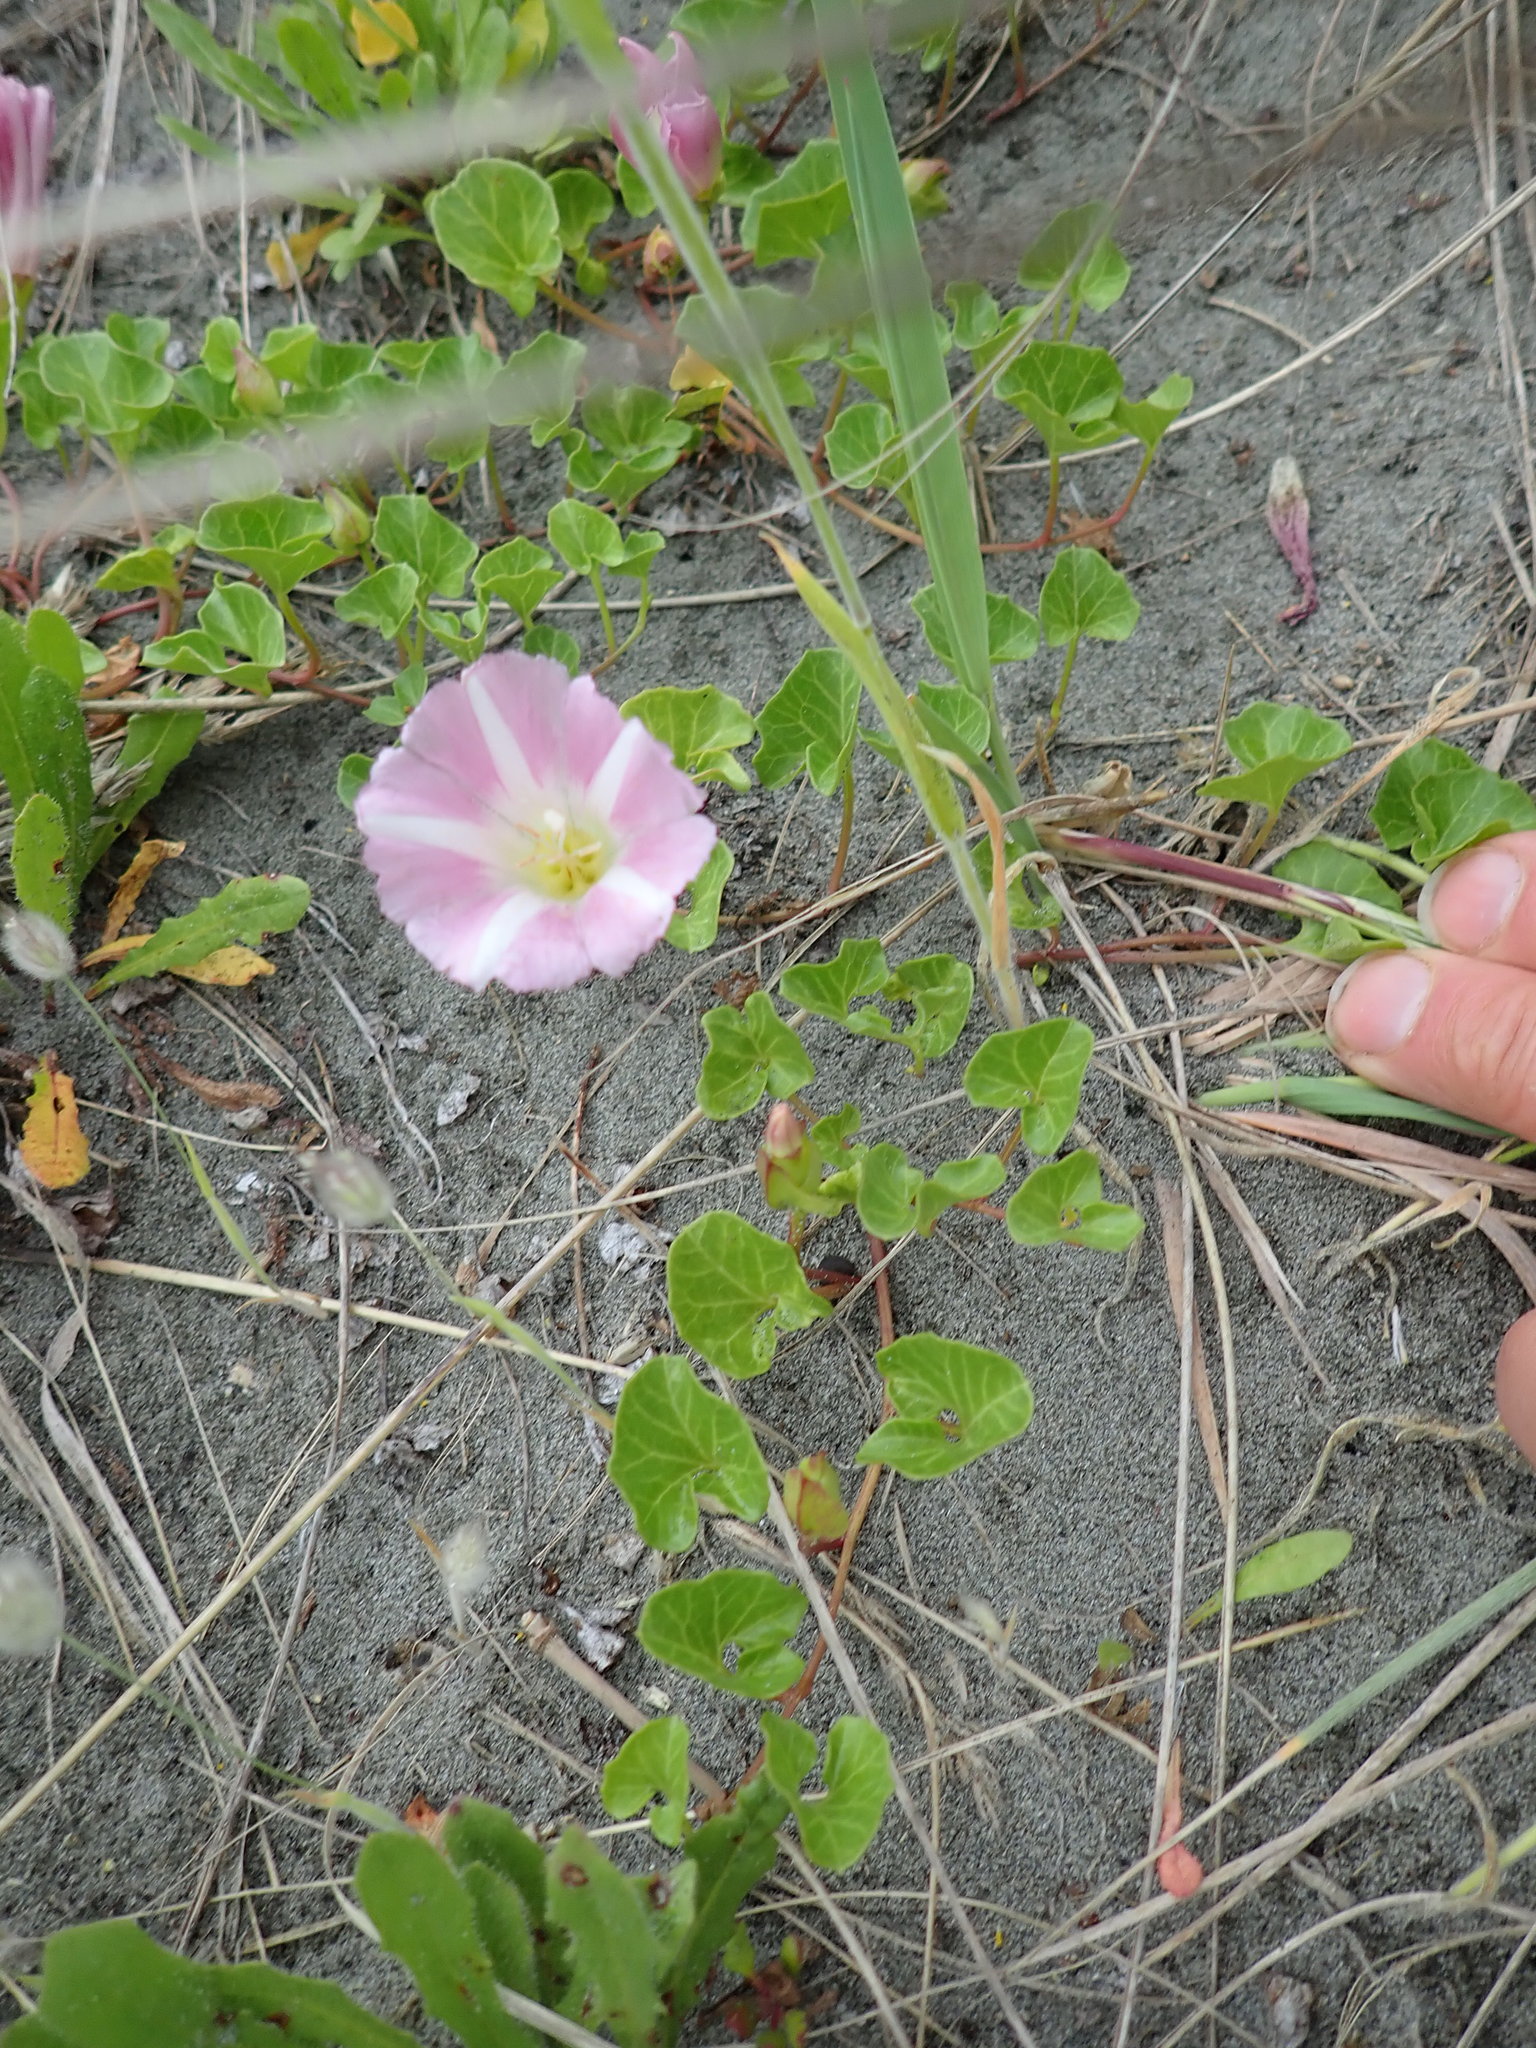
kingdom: Plantae
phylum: Tracheophyta
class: Magnoliopsida
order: Solanales
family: Convolvulaceae
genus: Calystegia
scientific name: Calystegia soldanella
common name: Sea bindweed
